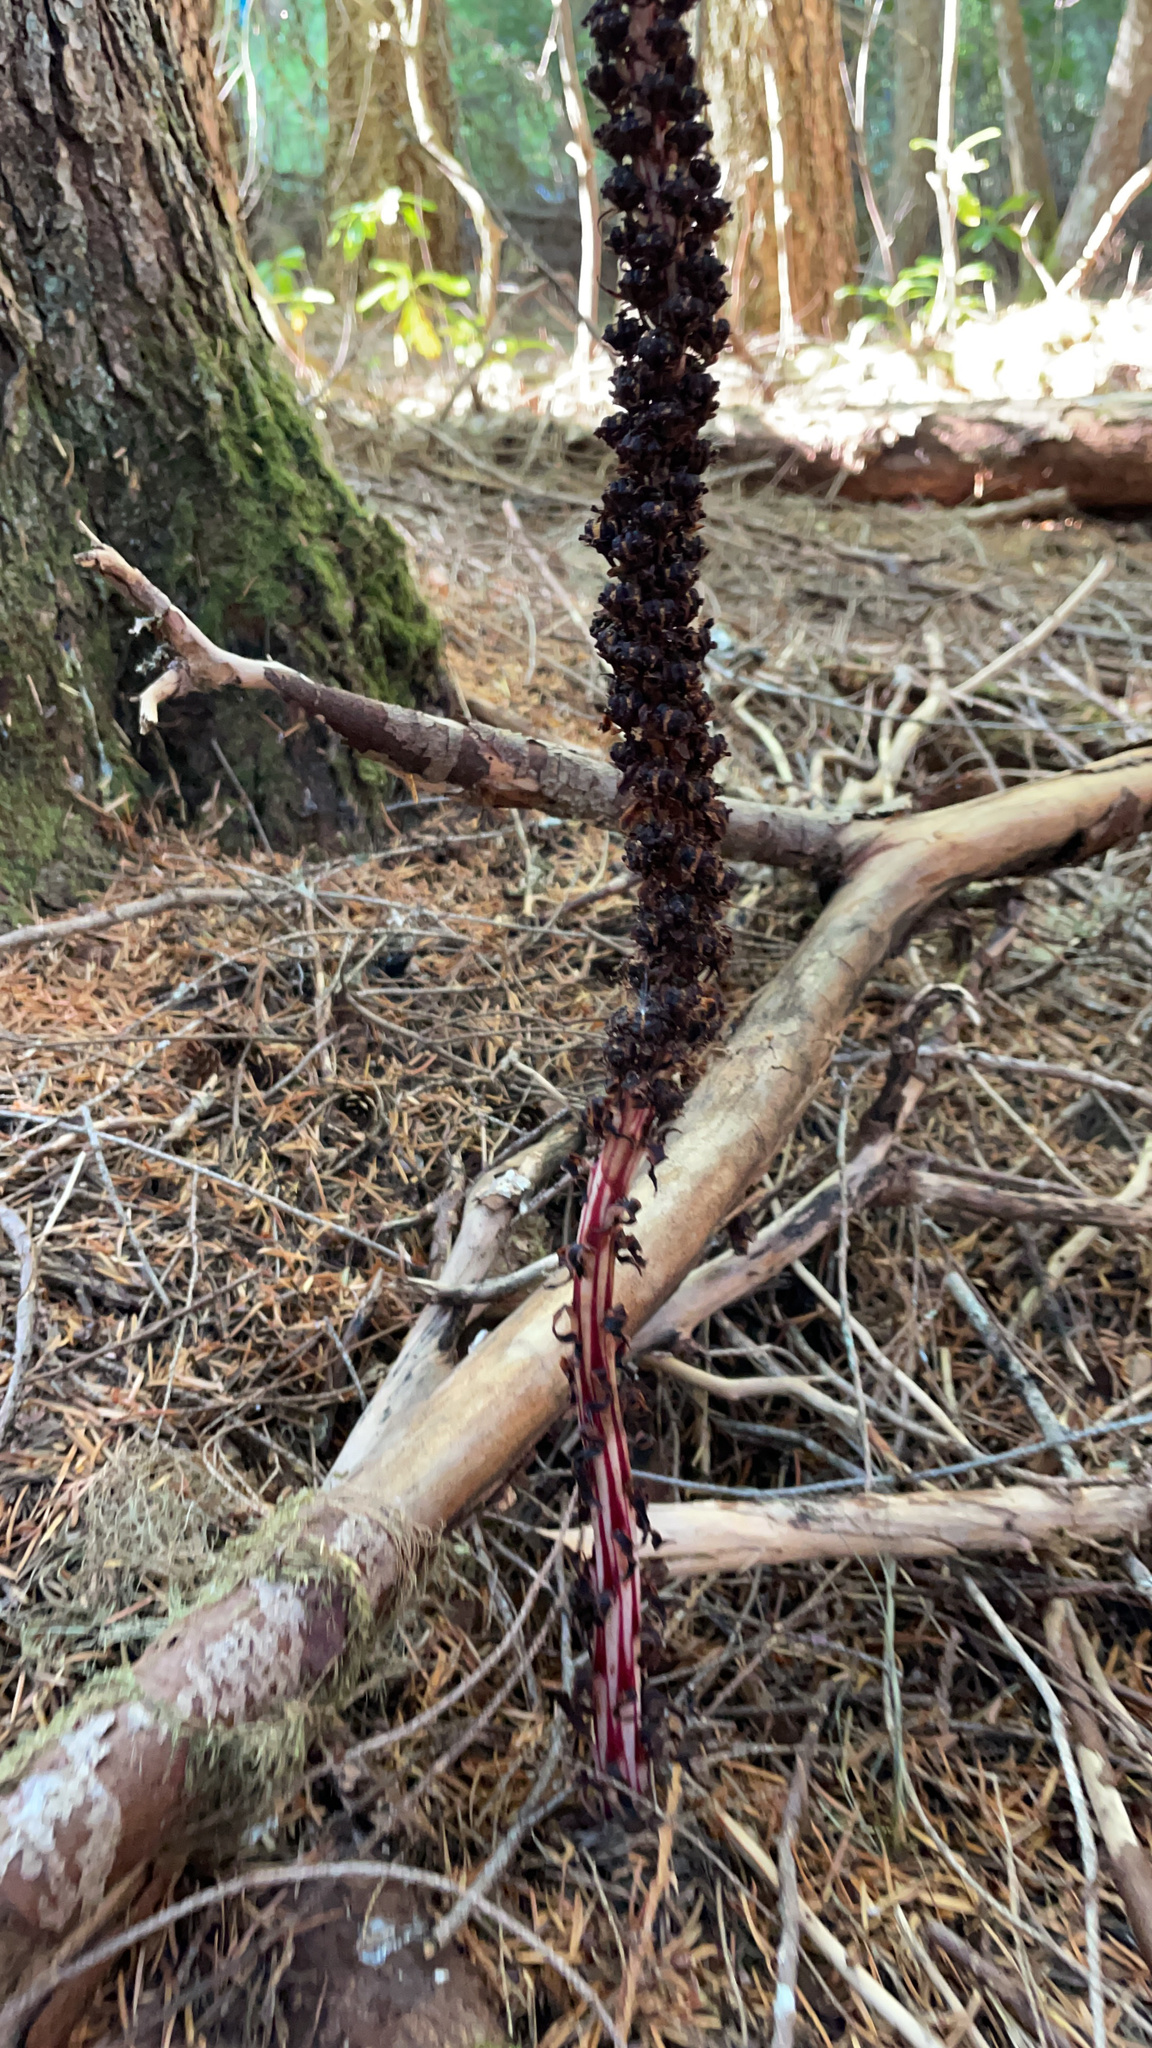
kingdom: Plantae
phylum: Tracheophyta
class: Magnoliopsida
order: Ericales
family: Ericaceae
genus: Allotropa
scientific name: Allotropa virgata
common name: Candy-striped allotropa
